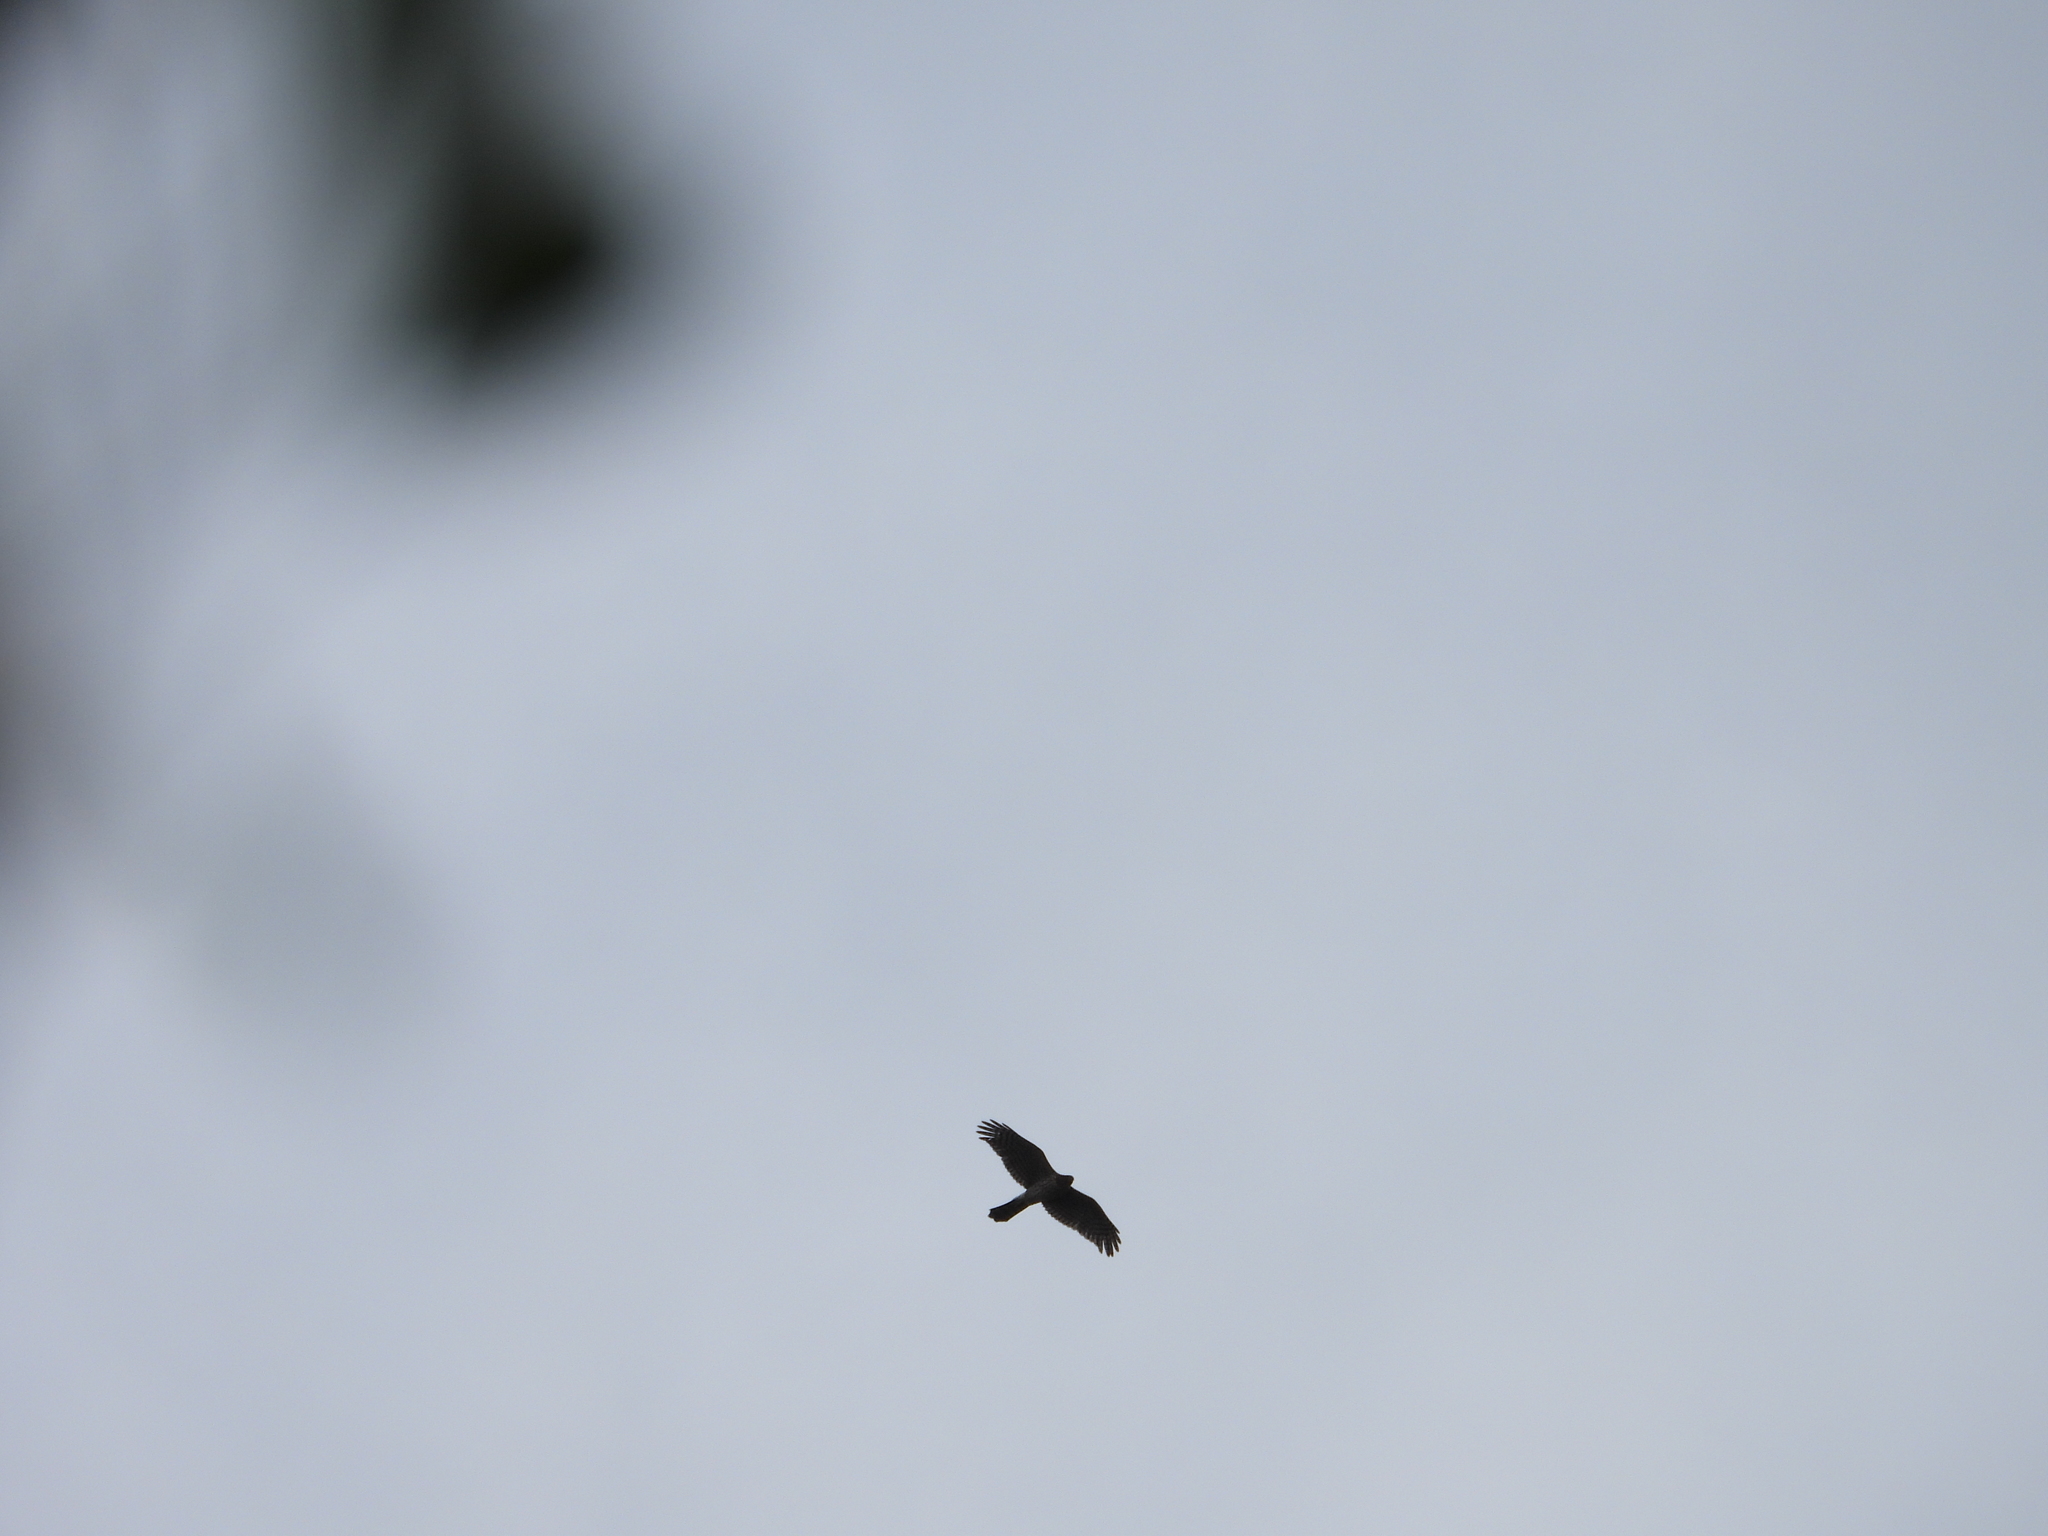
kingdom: Animalia
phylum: Chordata
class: Aves
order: Accipitriformes
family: Accipitridae
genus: Accipiter
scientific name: Accipiter cooperii
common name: Cooper's hawk
